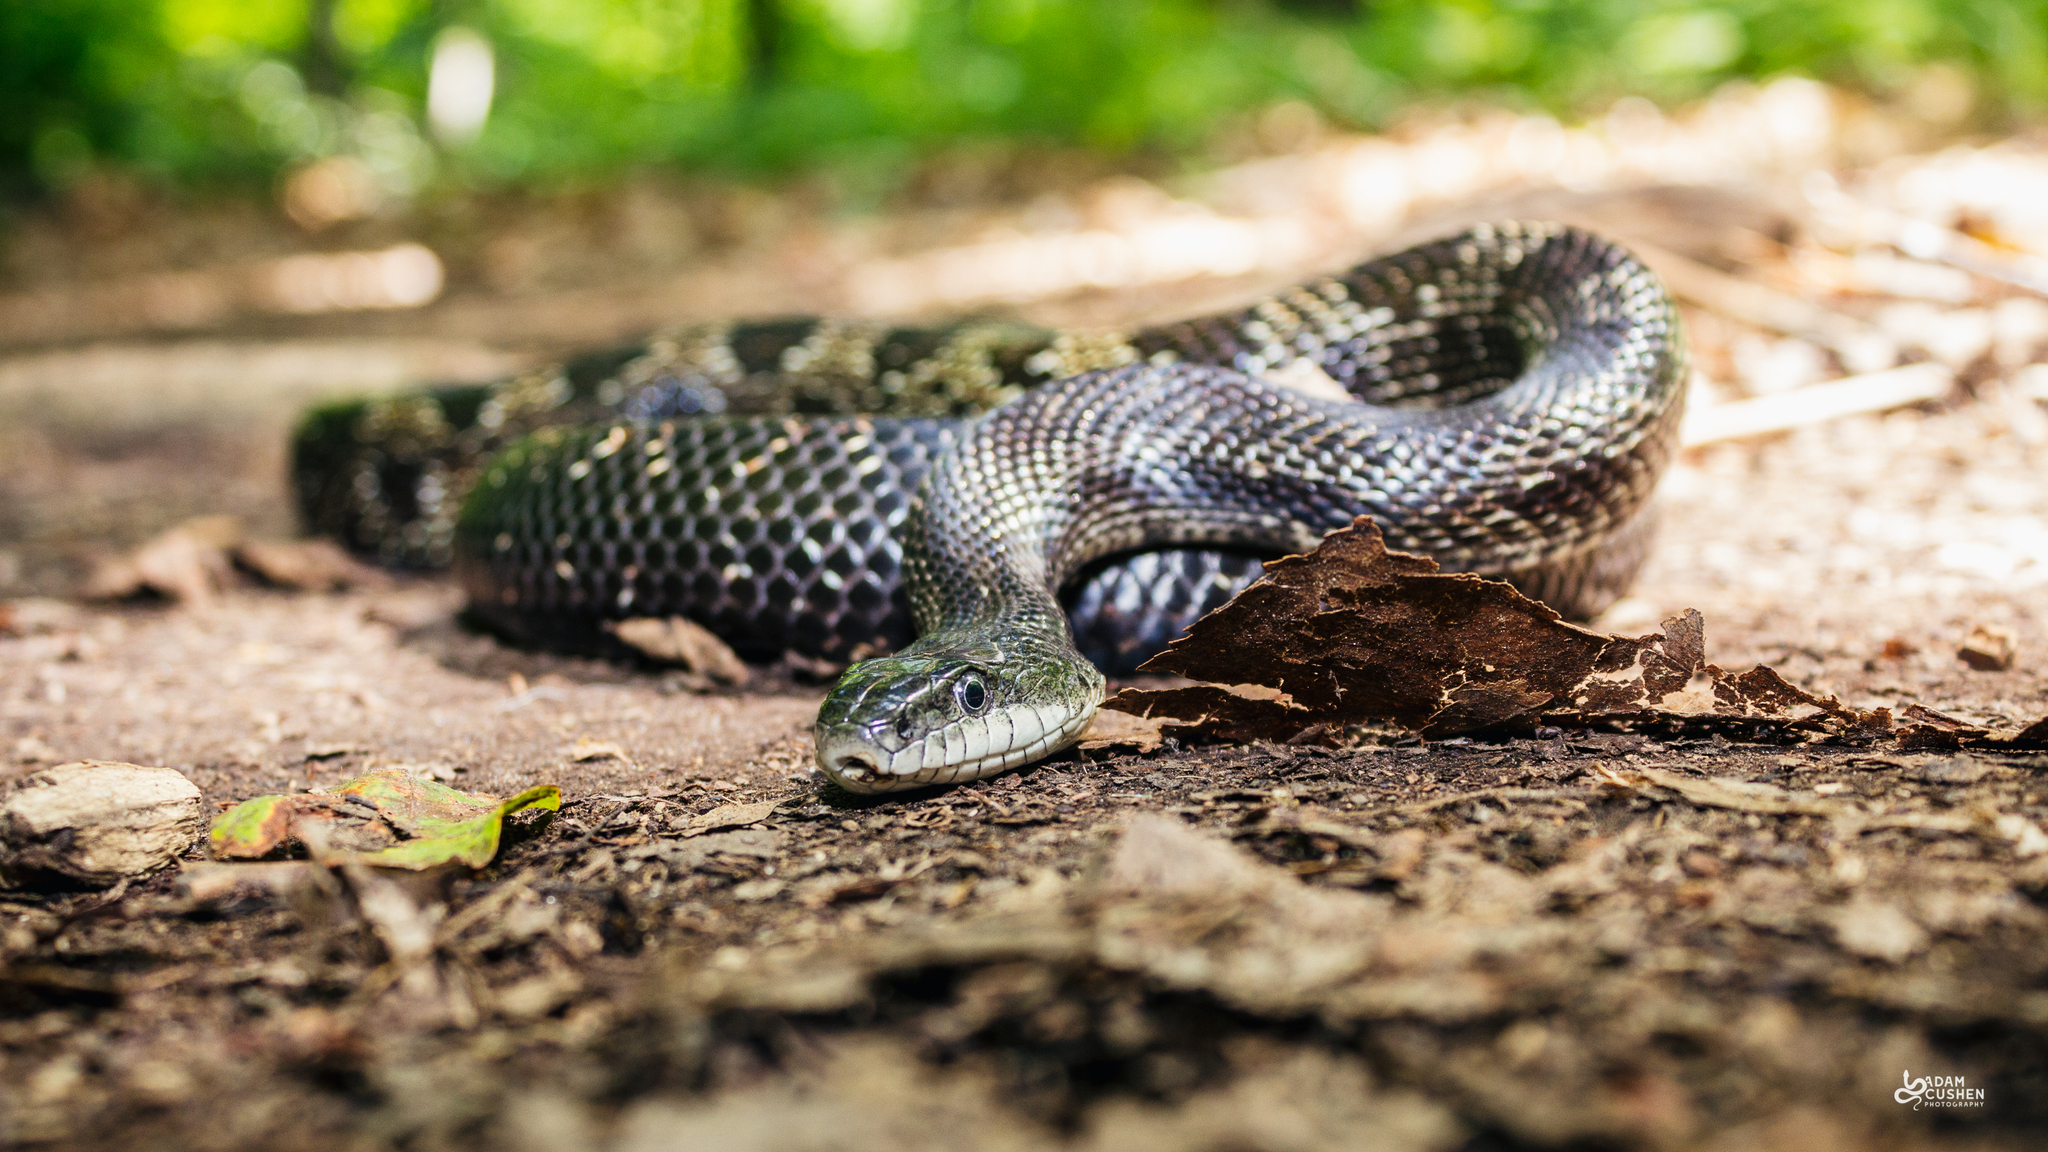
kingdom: Animalia
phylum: Chordata
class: Squamata
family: Colubridae
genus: Pantherophis
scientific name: Pantherophis spiloides
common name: Gray rat snake
